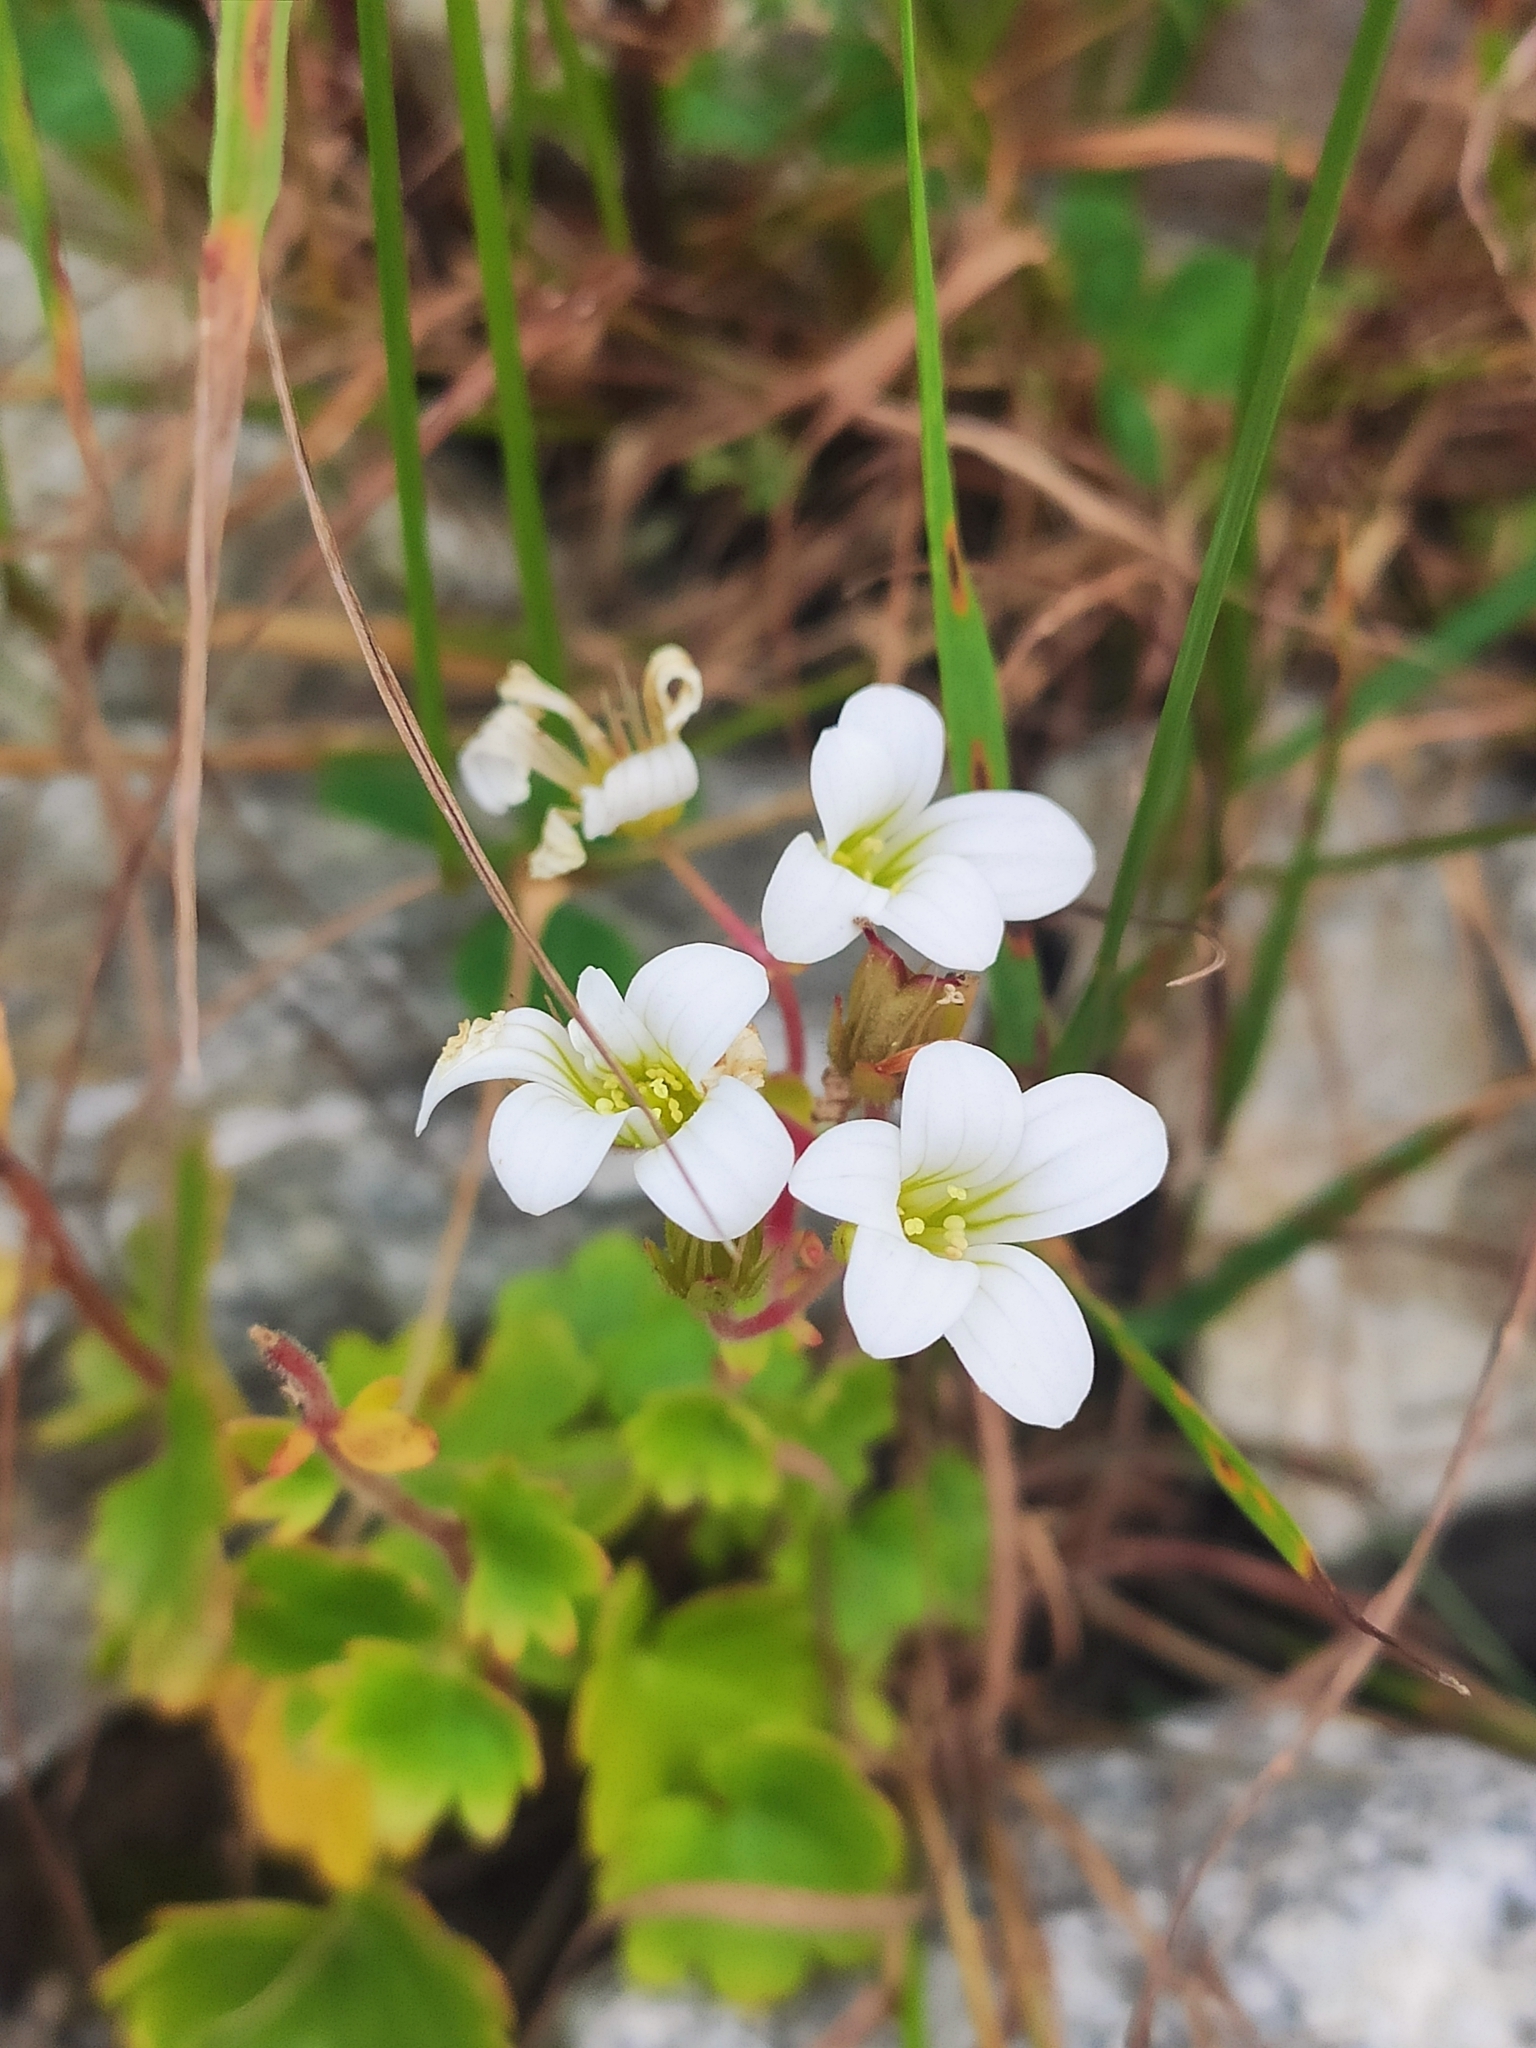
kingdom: Plantae
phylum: Tracheophyta
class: Magnoliopsida
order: Saxifragales
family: Saxifragaceae
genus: Saxifraga
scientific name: Saxifraga sibirica
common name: Siberian saxifrage
